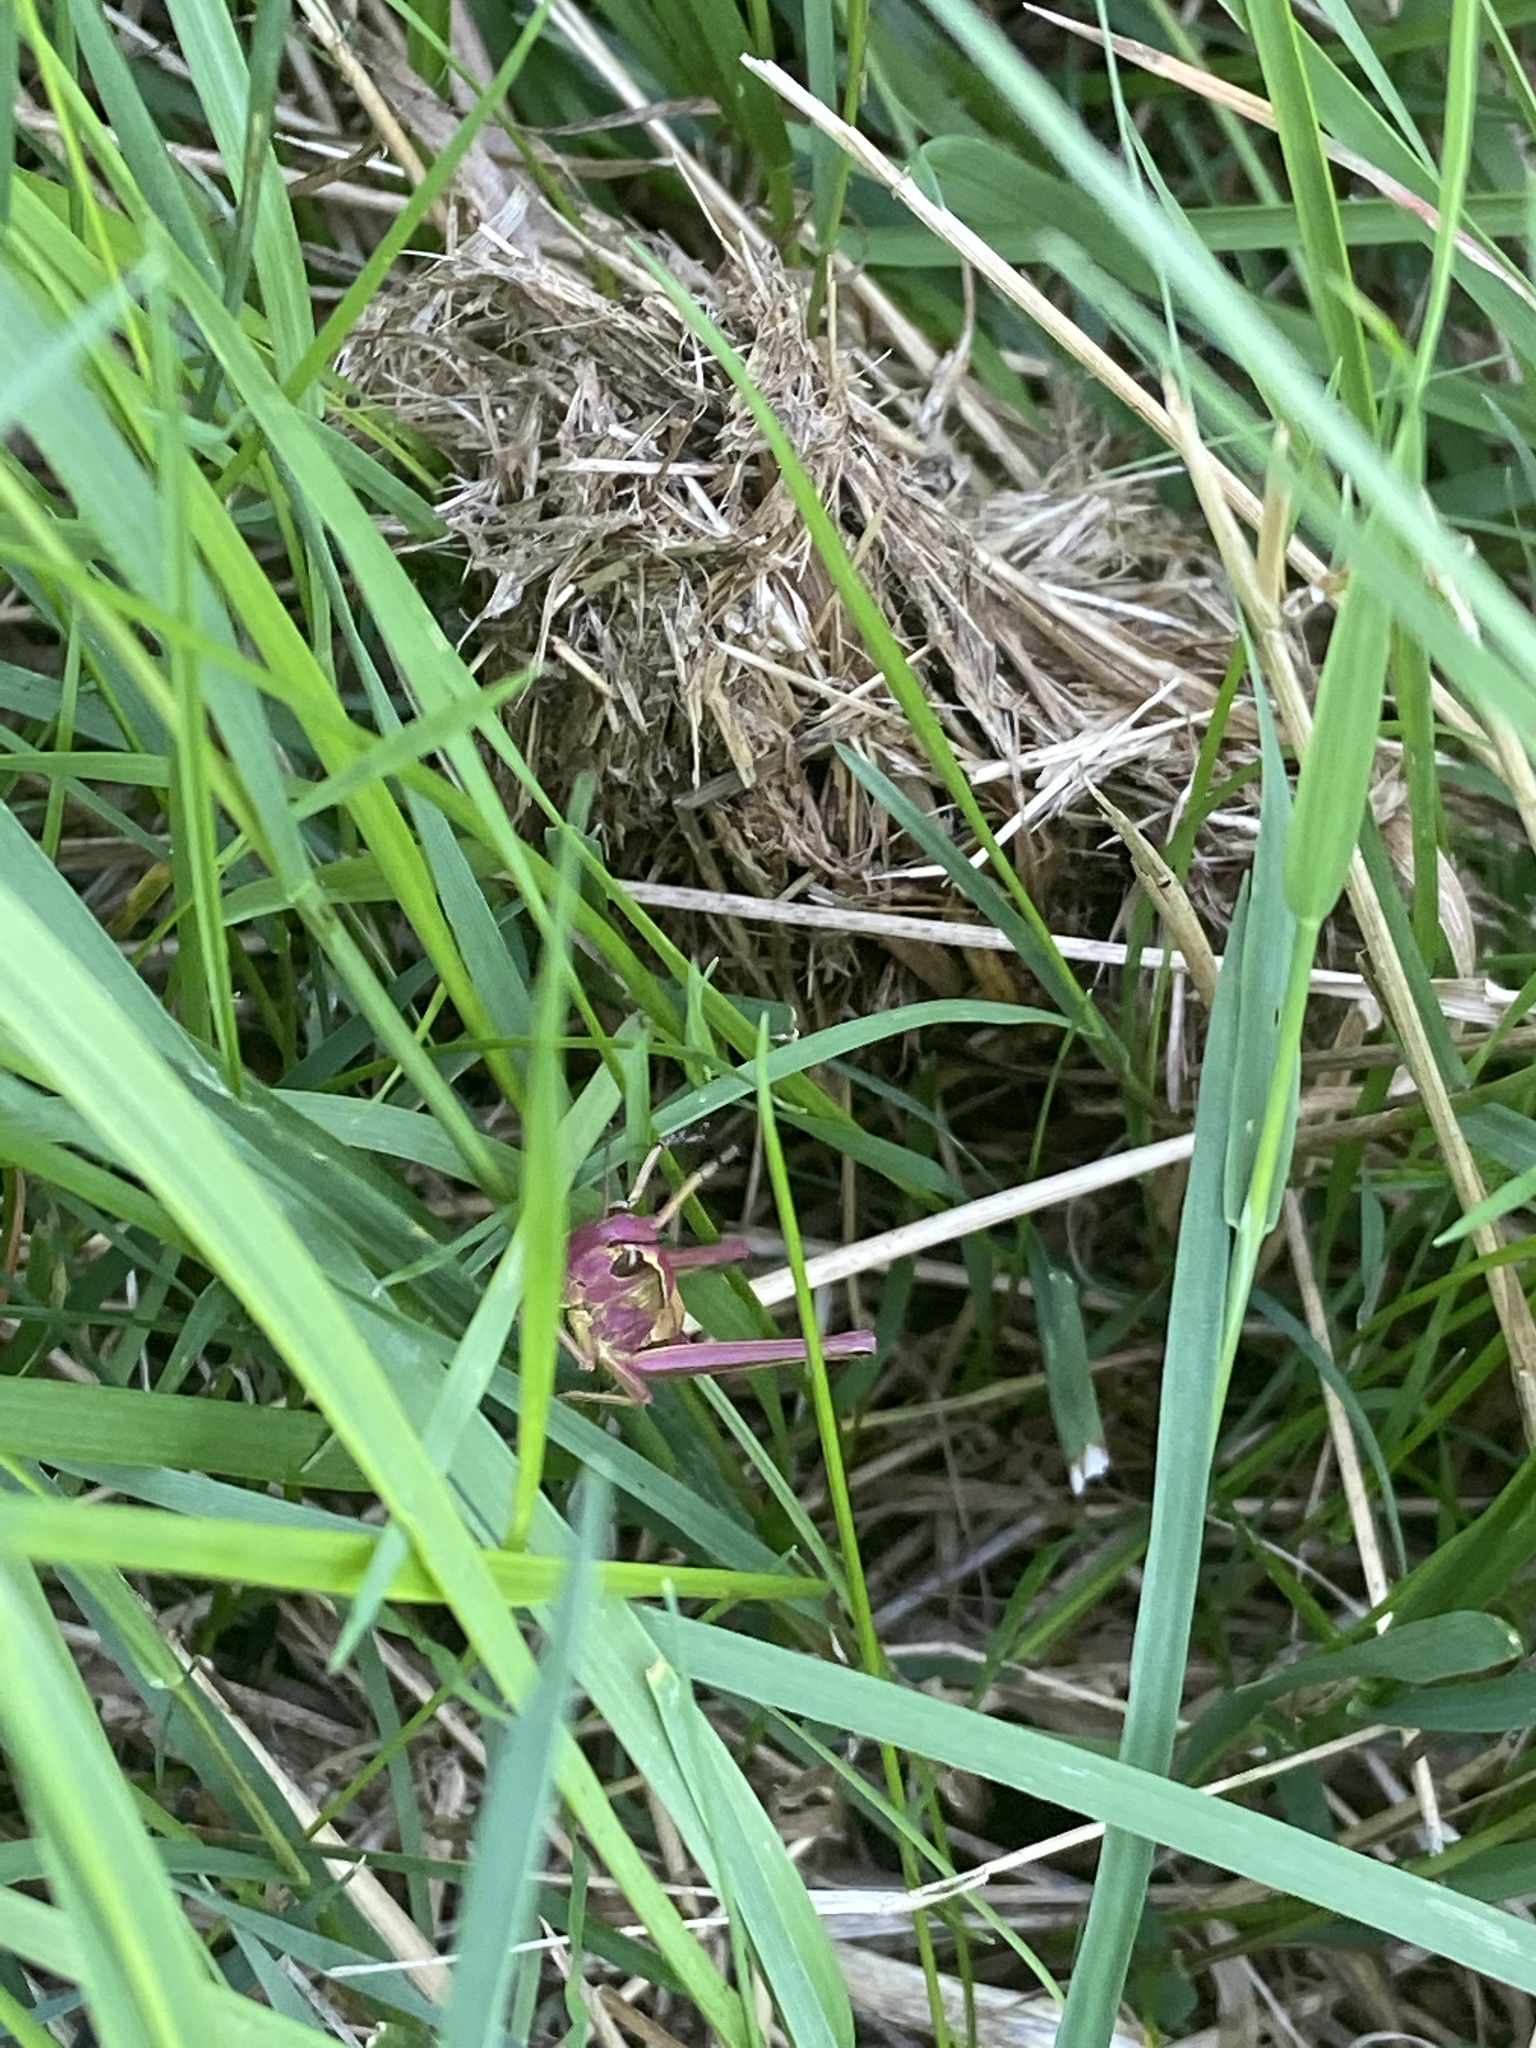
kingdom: Animalia
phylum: Arthropoda
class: Insecta
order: Orthoptera
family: Acrididae
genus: Stethophyma
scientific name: Stethophyma grossum
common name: Large marsh grasshopper
